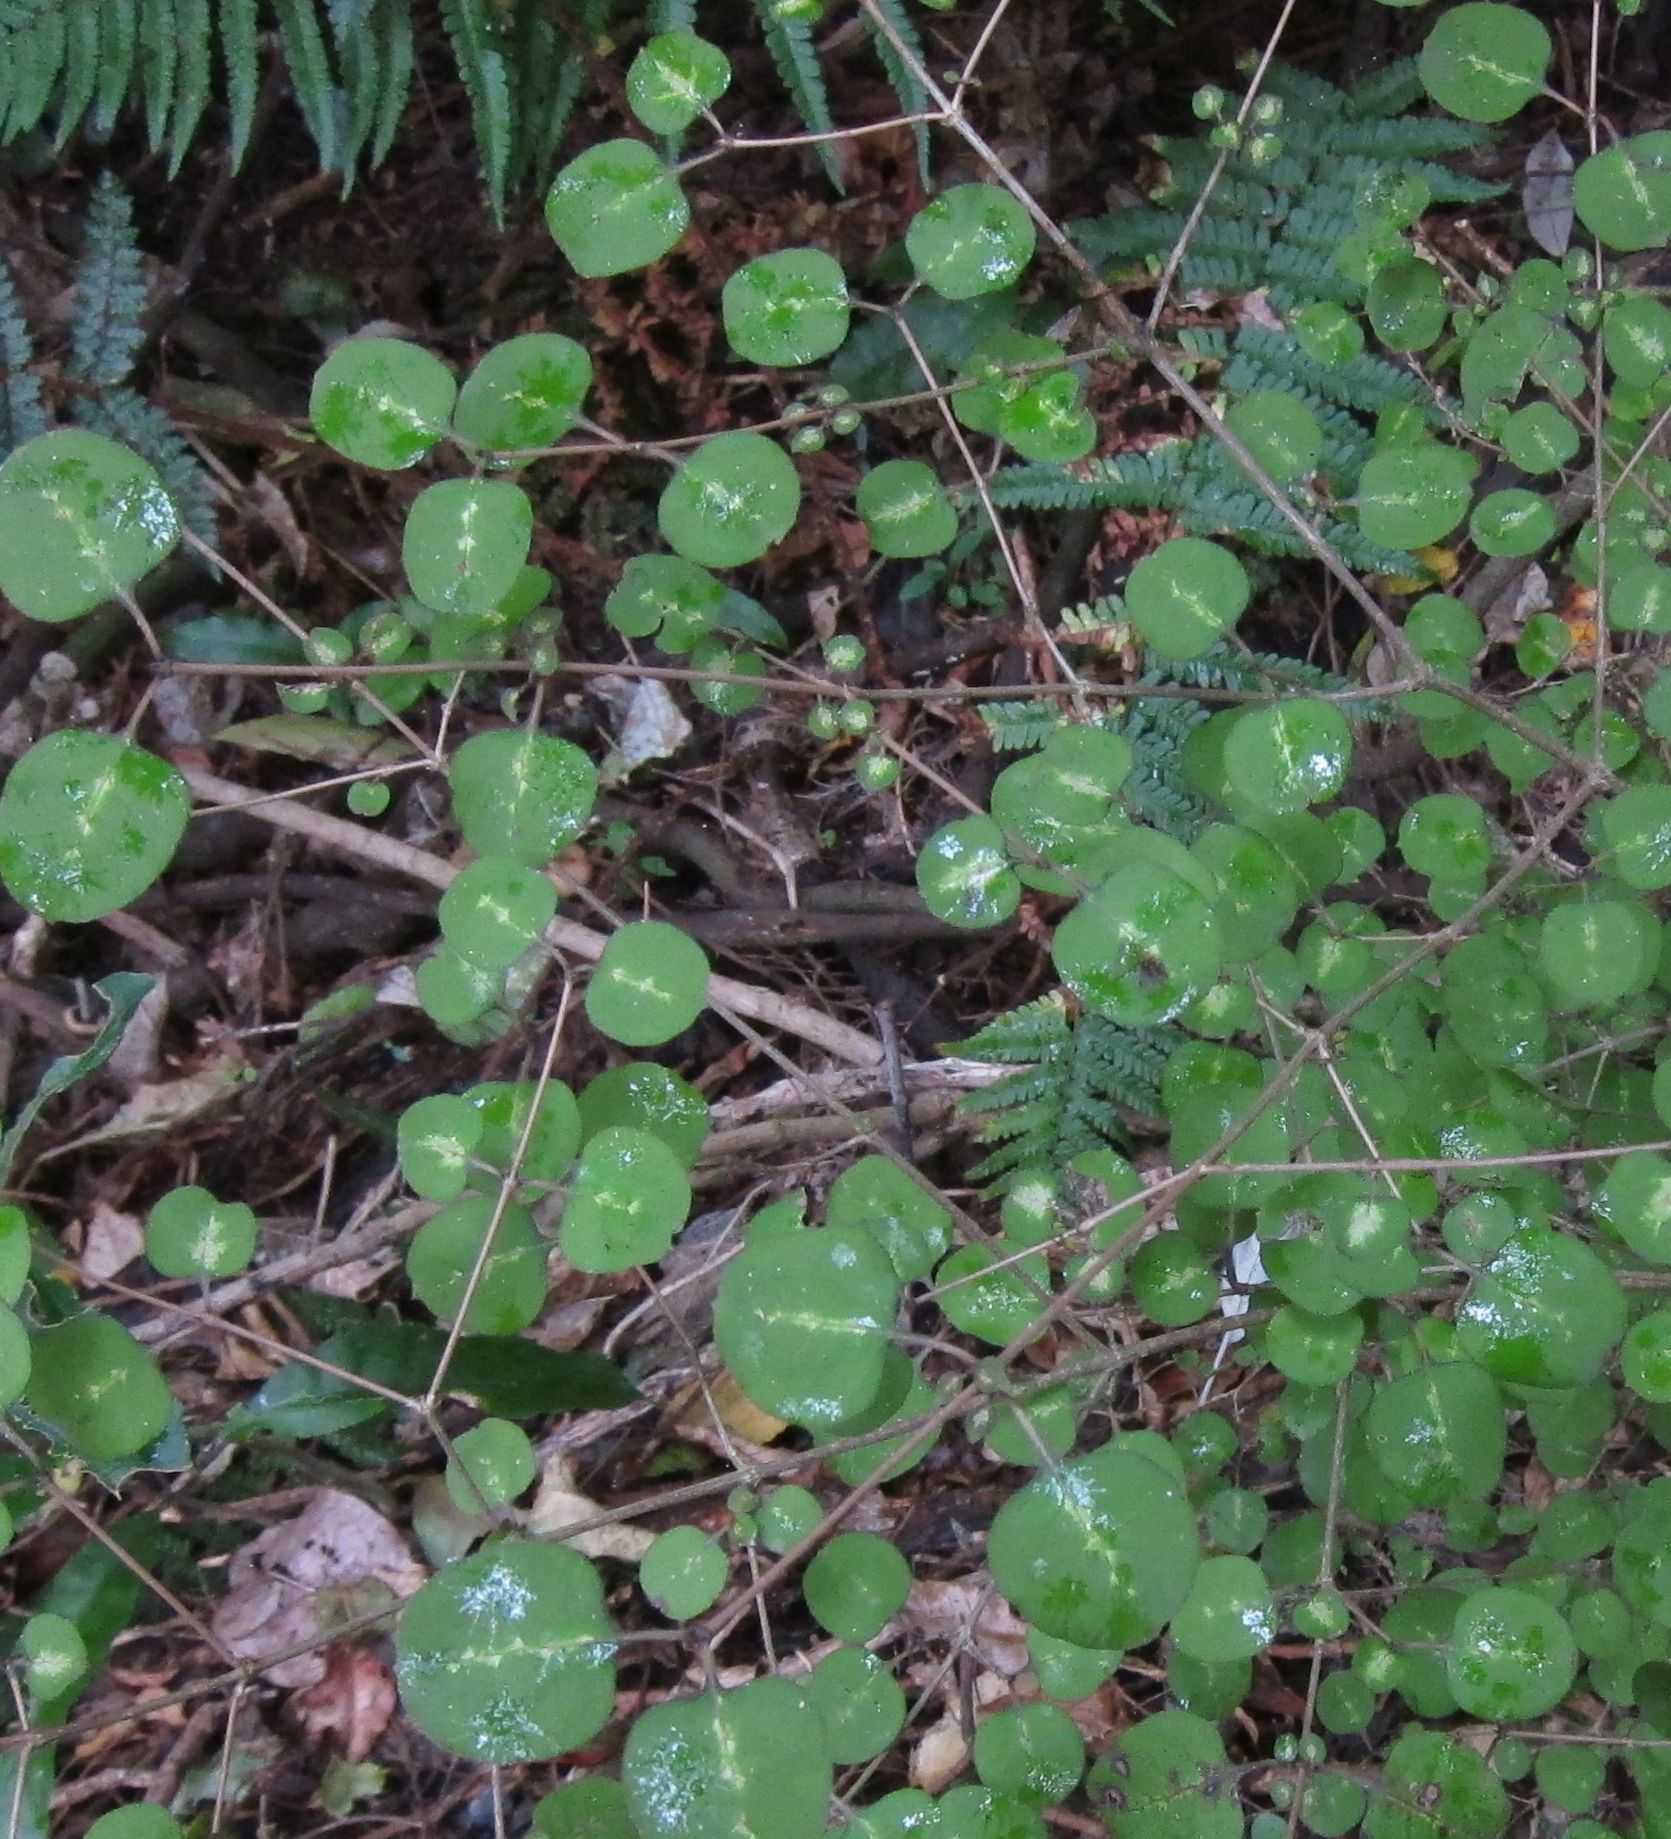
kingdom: Plantae
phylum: Tracheophyta
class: Magnoliopsida
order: Gentianales
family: Rubiaceae
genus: Coprosma
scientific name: Coprosma rotundifolia
